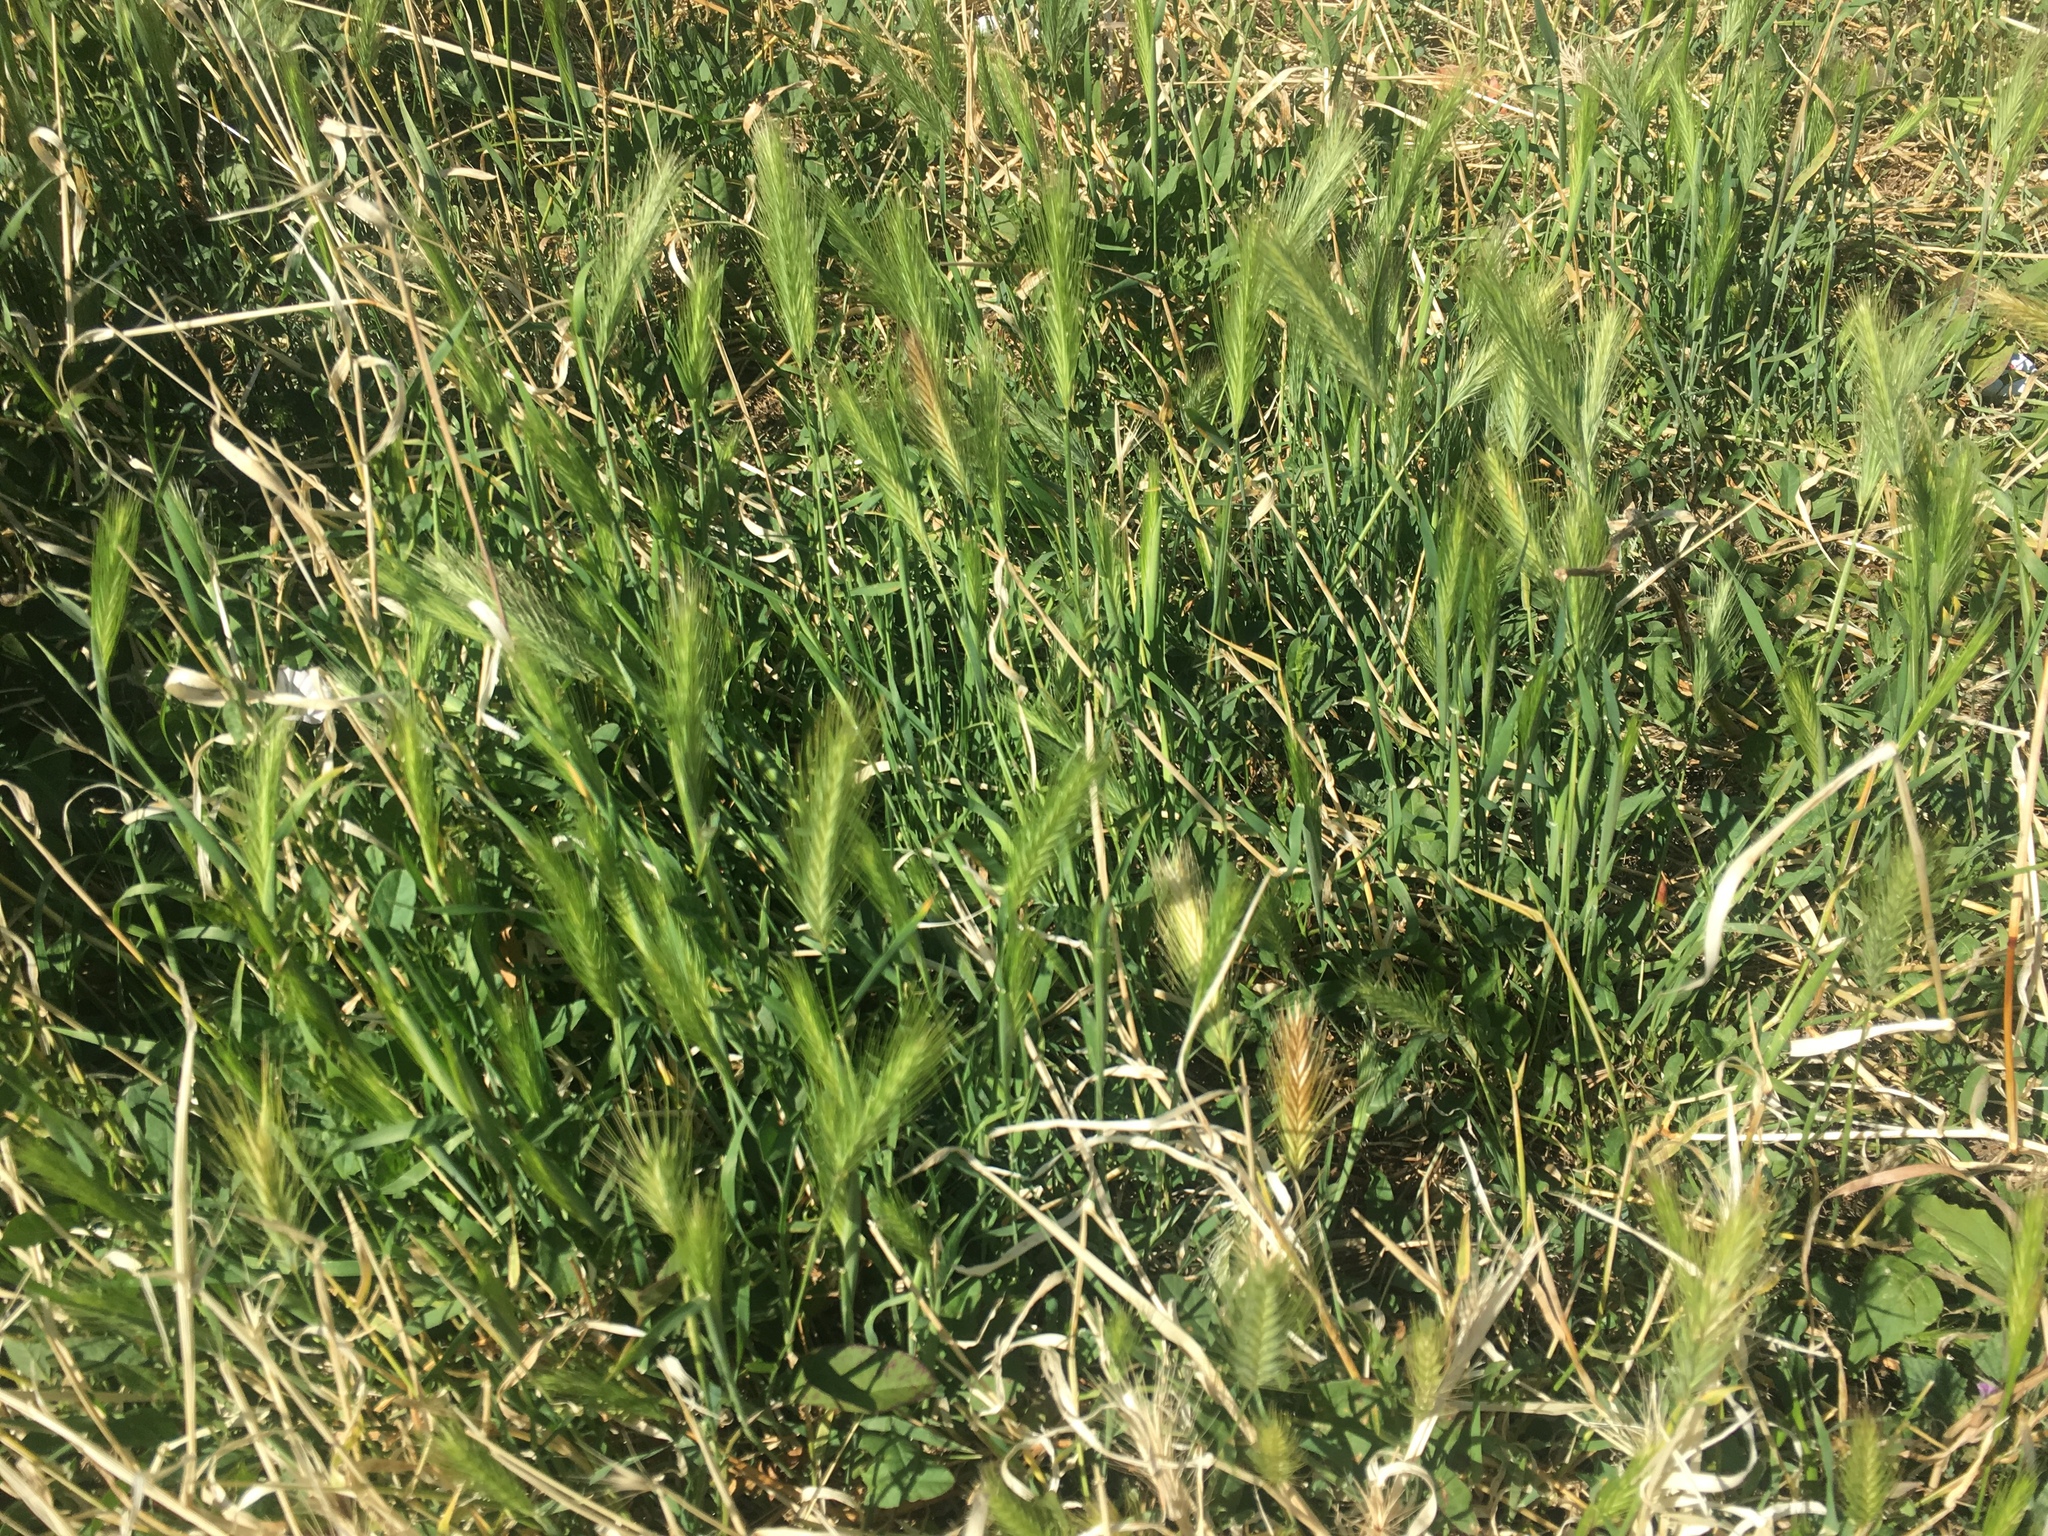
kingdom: Plantae
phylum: Tracheophyta
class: Liliopsida
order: Poales
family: Poaceae
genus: Hordeum
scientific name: Hordeum murinum
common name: Wall barley
